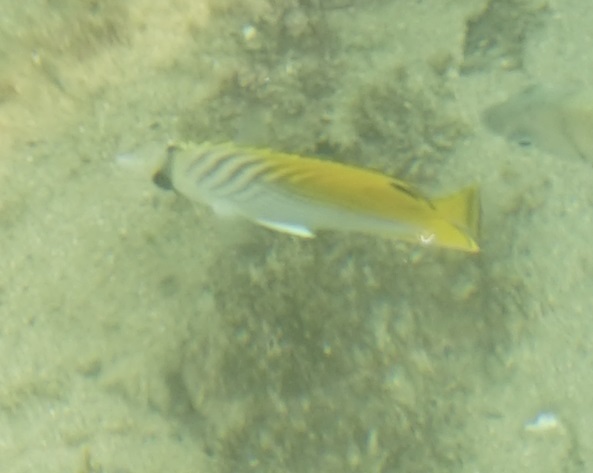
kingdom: Animalia
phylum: Chordata
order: Perciformes
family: Chaetodontidae
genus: Chaetodon
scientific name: Chaetodon auriga
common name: Threadfin butterflyfish
